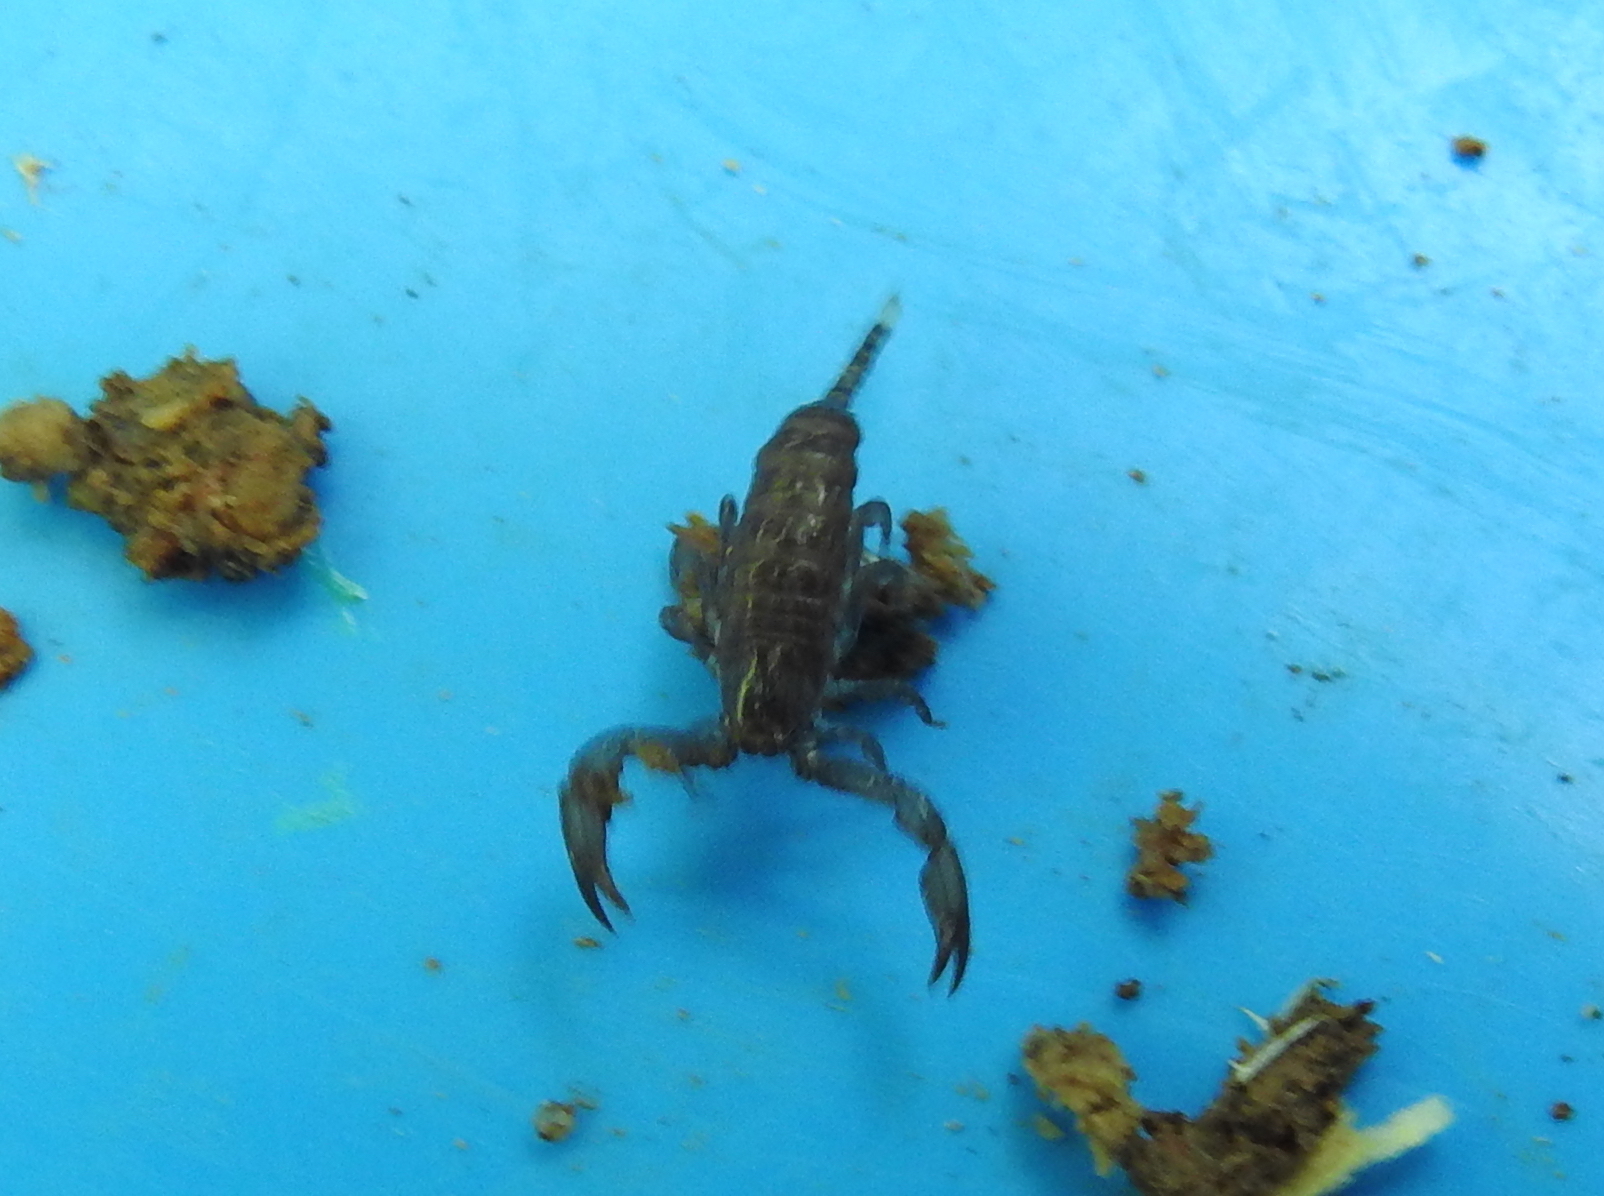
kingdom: Animalia
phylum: Arthropoda
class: Arachnida
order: Scorpiones
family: Hormuridae
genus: Liocheles
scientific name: Liocheles australasiae
